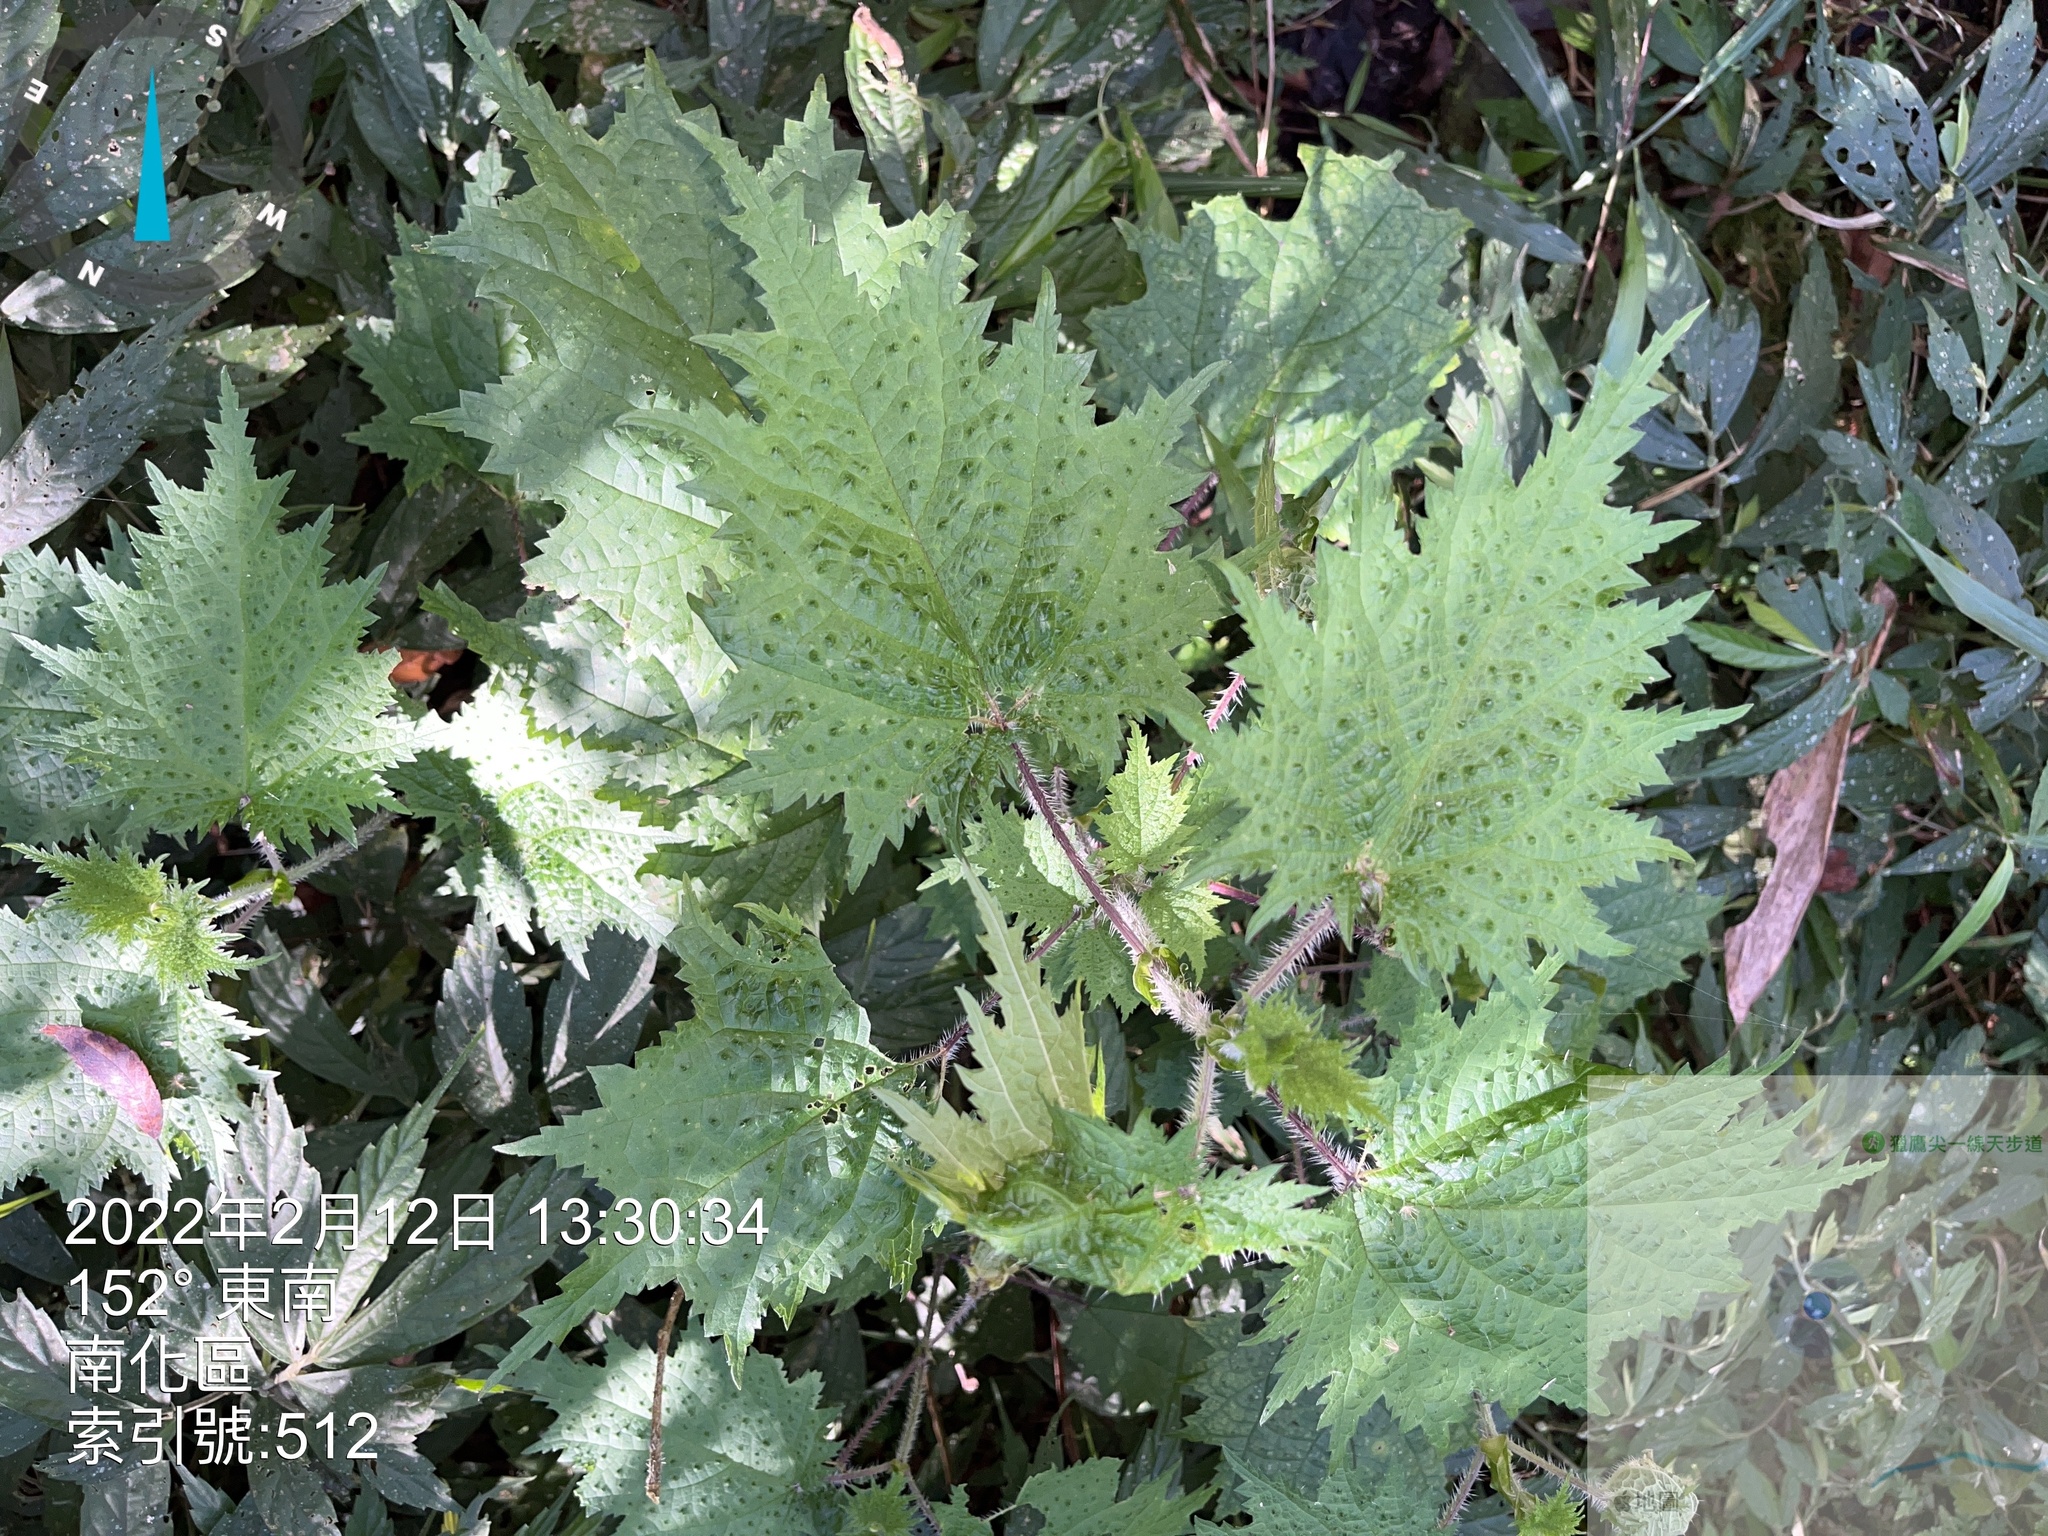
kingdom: Plantae
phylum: Tracheophyta
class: Magnoliopsida
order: Rosales
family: Urticaceae
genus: Urtica
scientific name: Urtica thunbergiana
